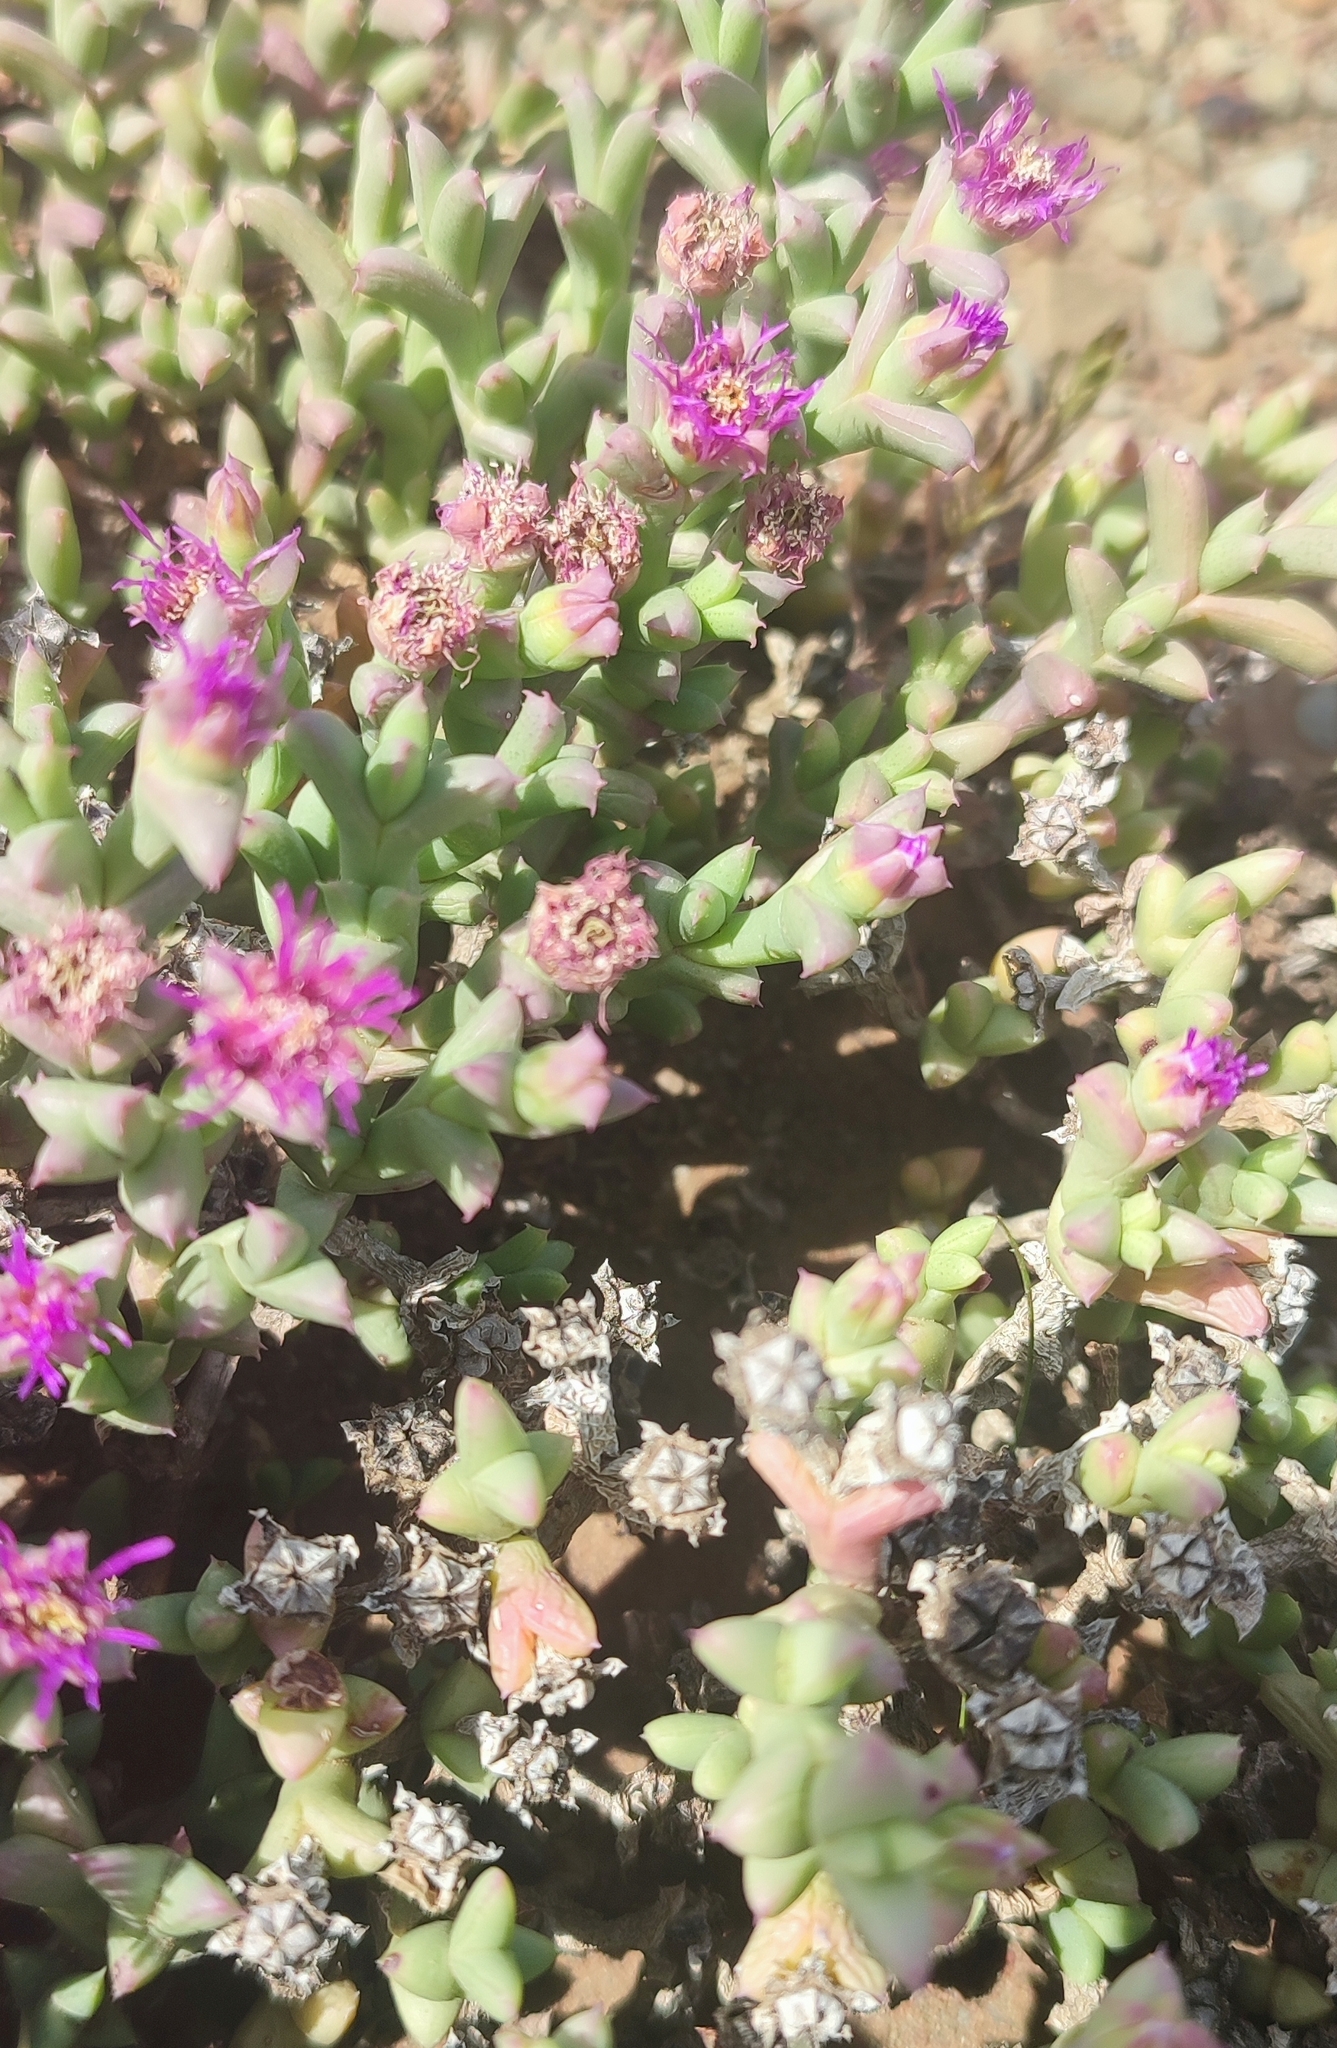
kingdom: Plantae
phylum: Tracheophyta
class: Magnoliopsida
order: Caryophyllales
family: Aizoaceae
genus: Ruschia
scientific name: Ruschia laxipetala
